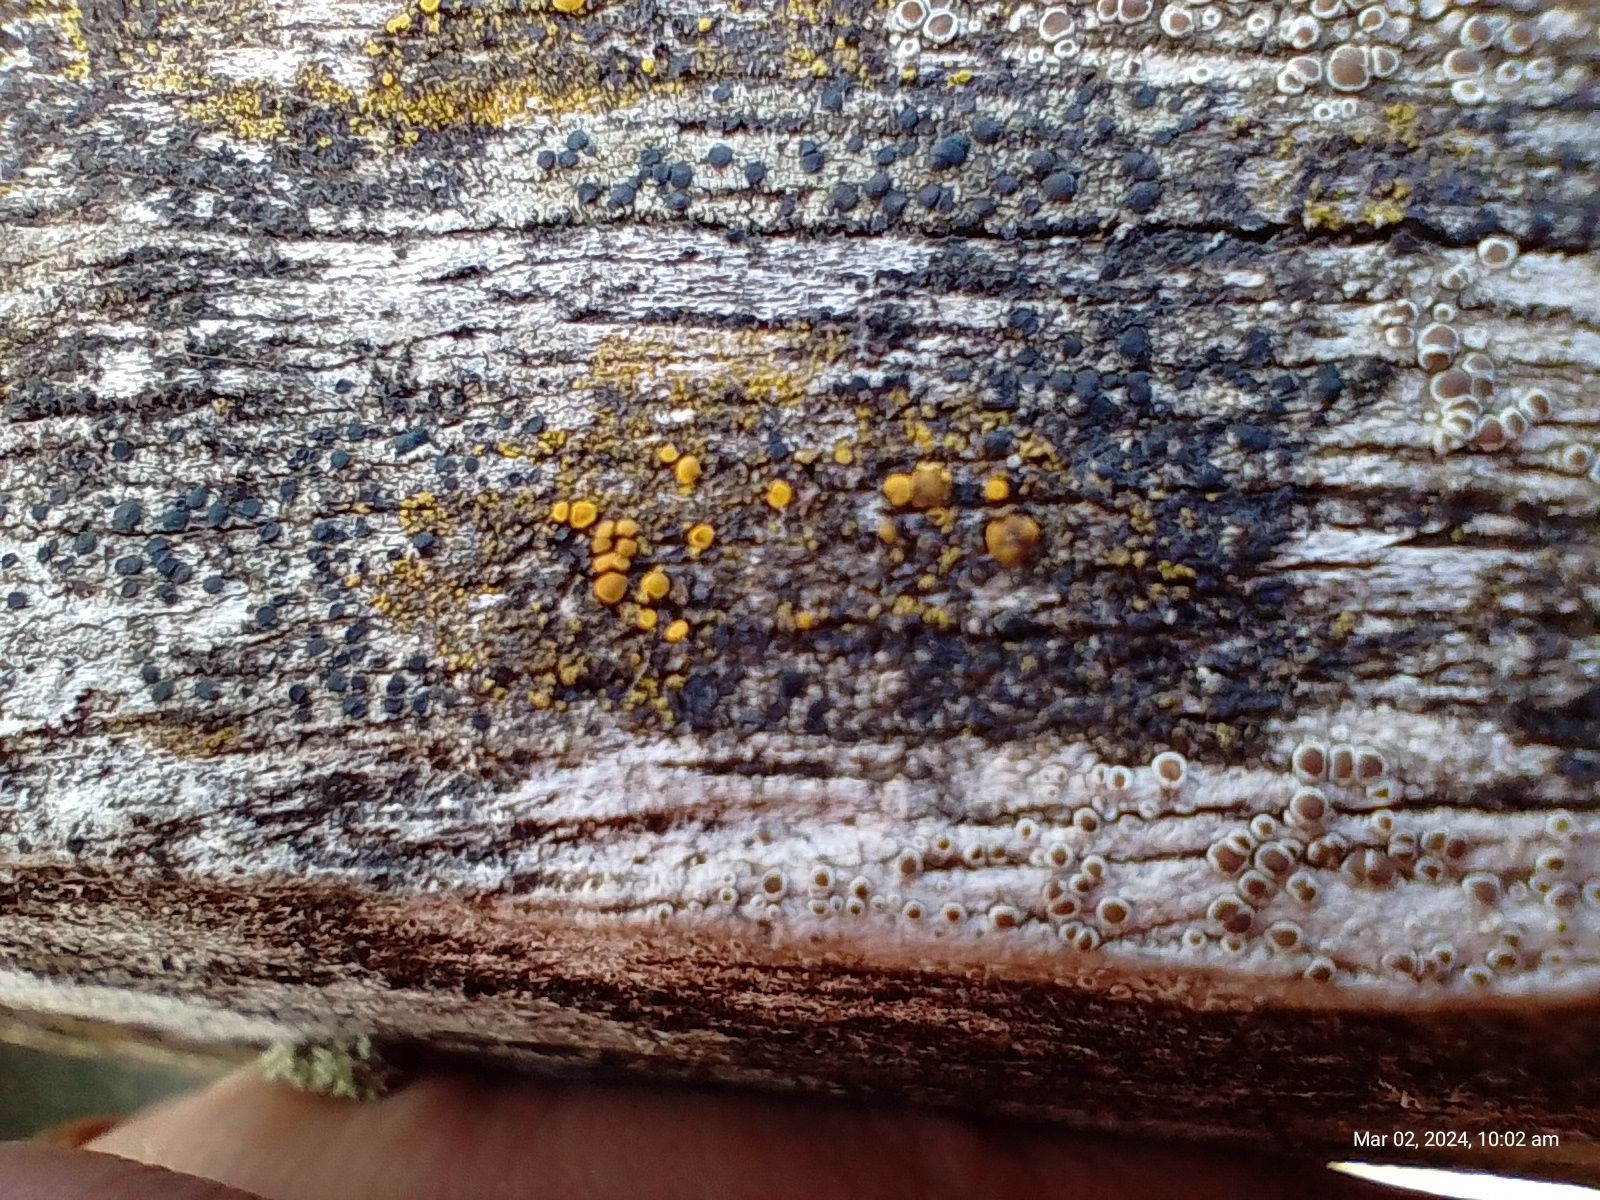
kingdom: Fungi
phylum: Ascomycota
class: Candelariomycetes
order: Candelariales
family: Candelariaceae
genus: Candelariella
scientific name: Candelariella vitellina
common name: Common goldspeck
